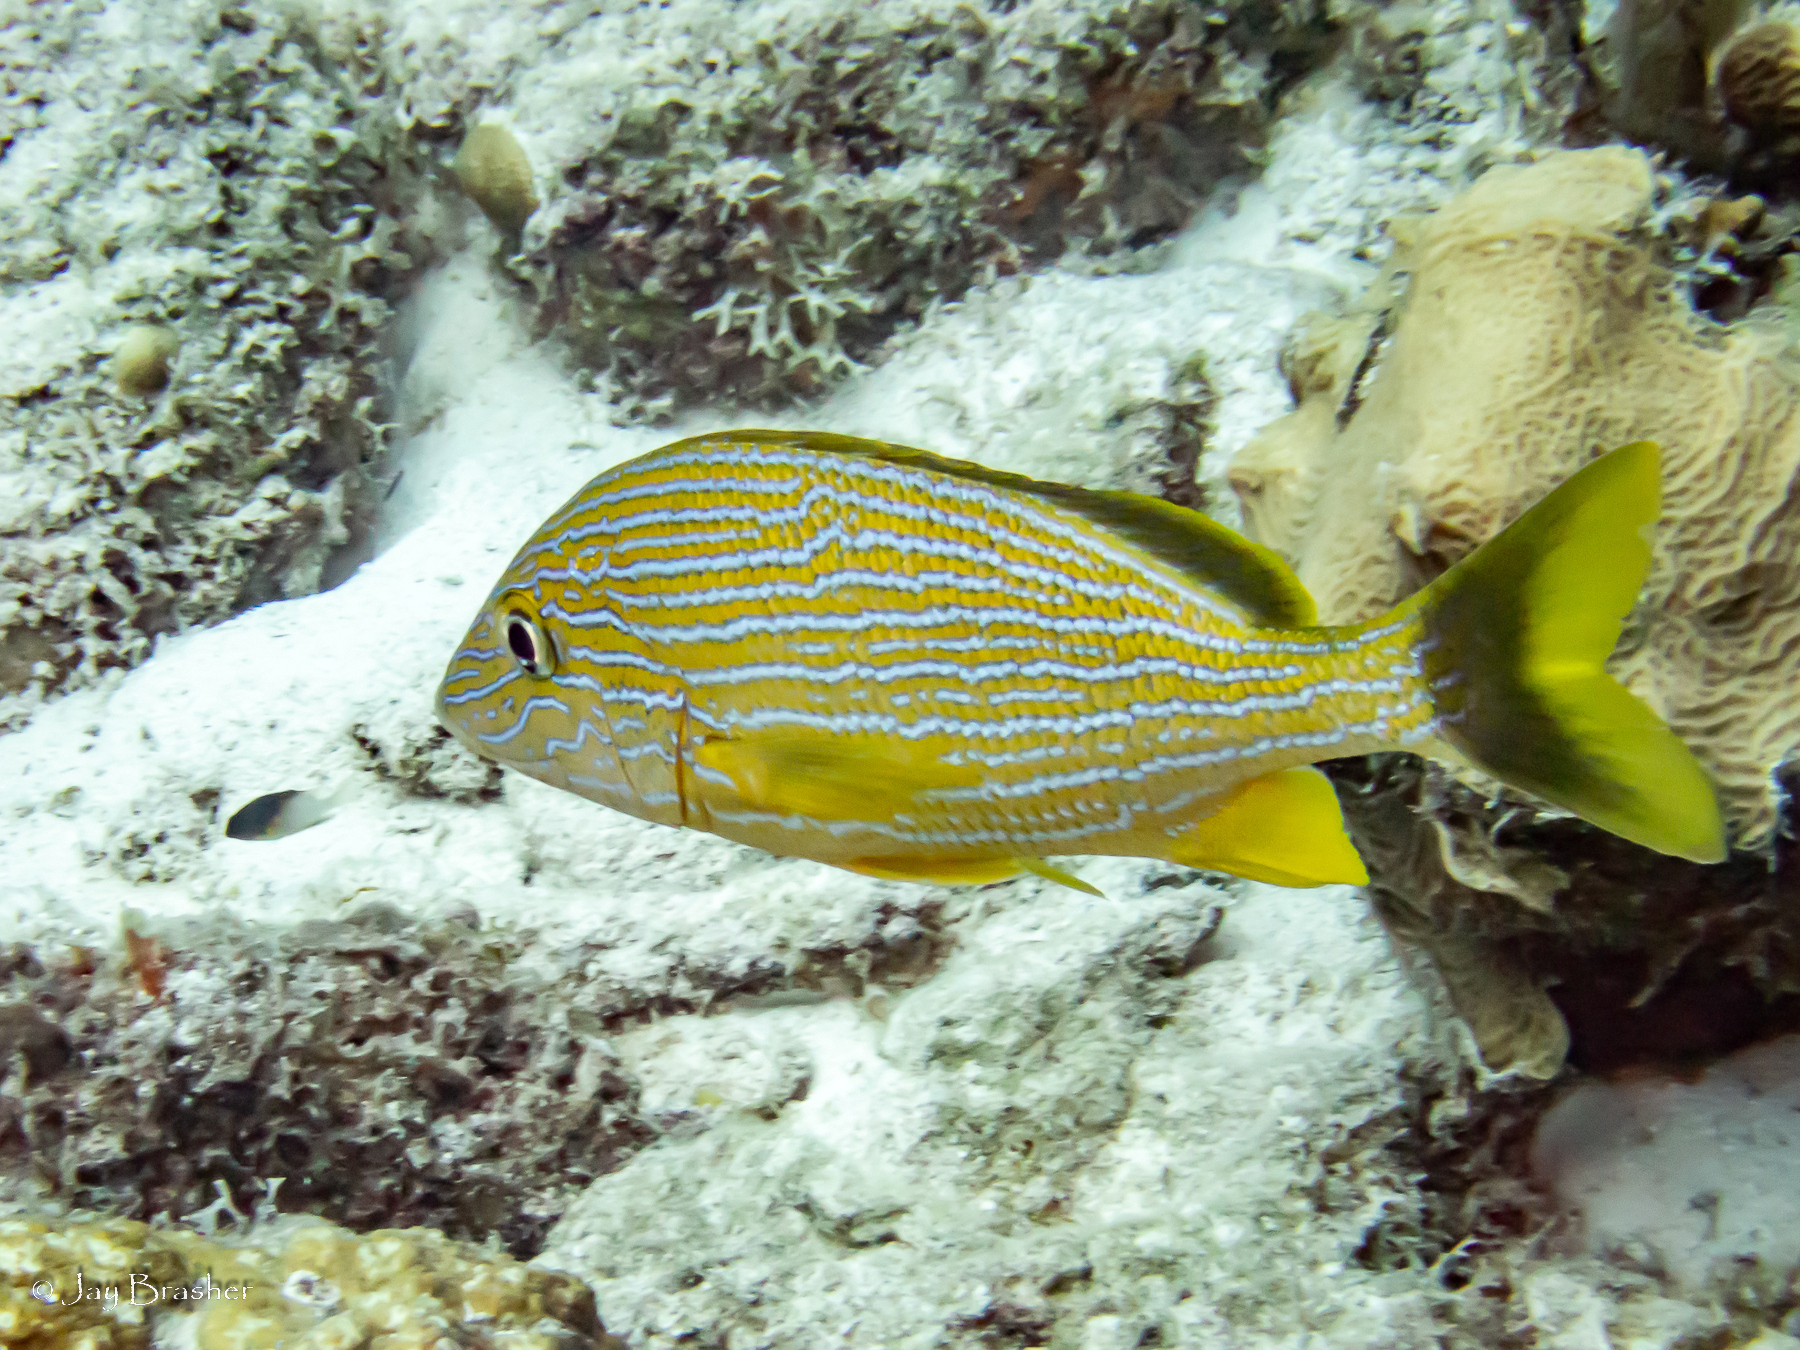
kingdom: Animalia
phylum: Chordata
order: Perciformes
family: Haemulidae
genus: Haemulon
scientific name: Haemulon sciurus
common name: Bluestriped grunt
